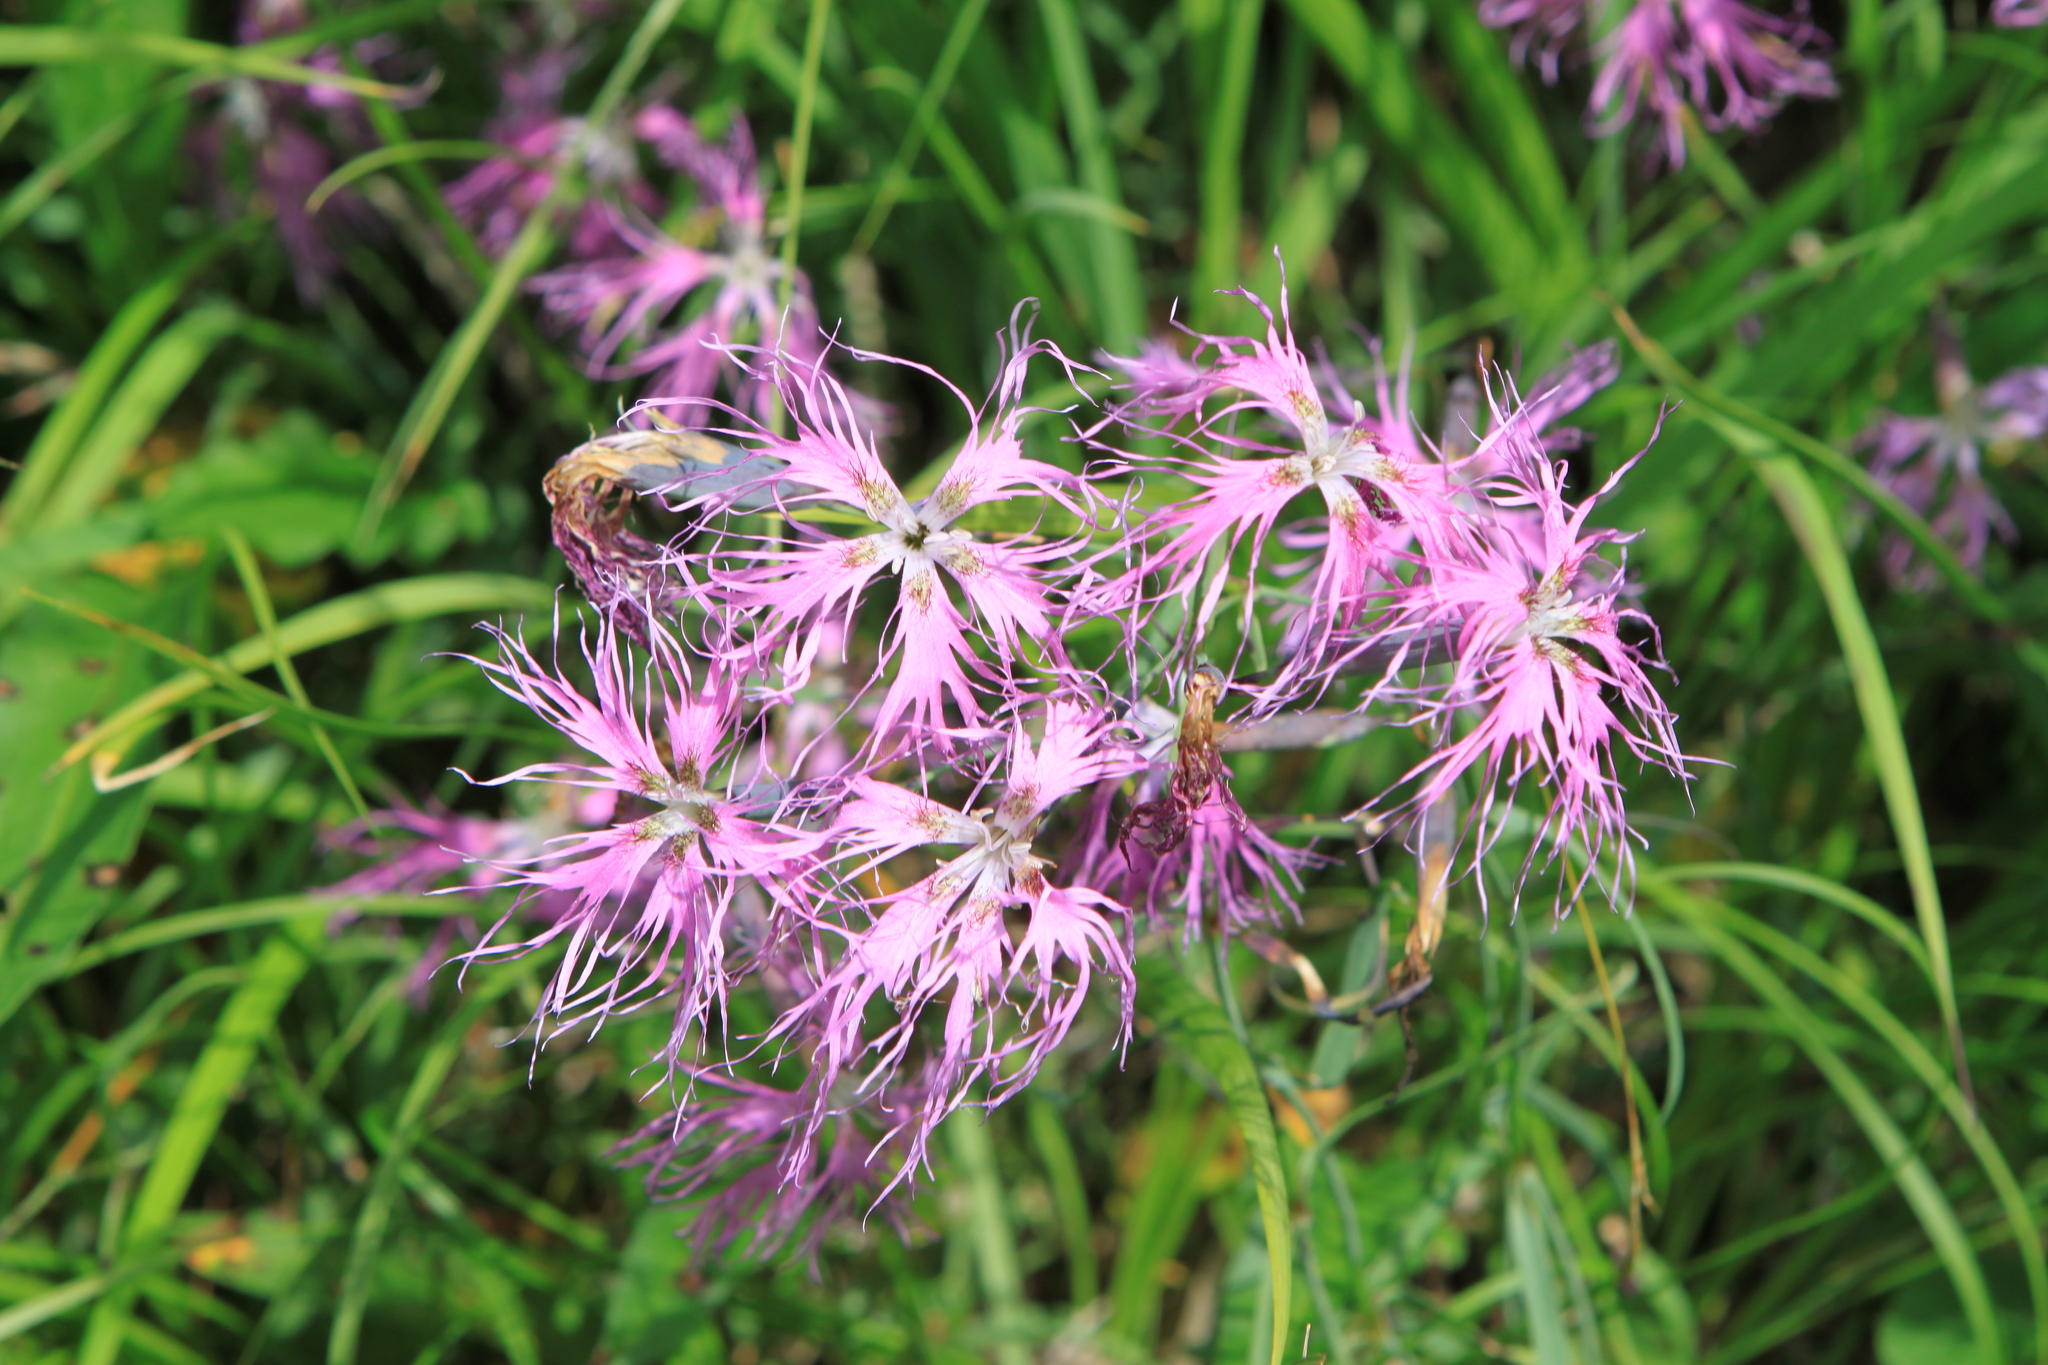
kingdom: Plantae
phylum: Tracheophyta
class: Magnoliopsida
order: Caryophyllales
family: Caryophyllaceae
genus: Dianthus
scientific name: Dianthus superbus
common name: Fringed pink
